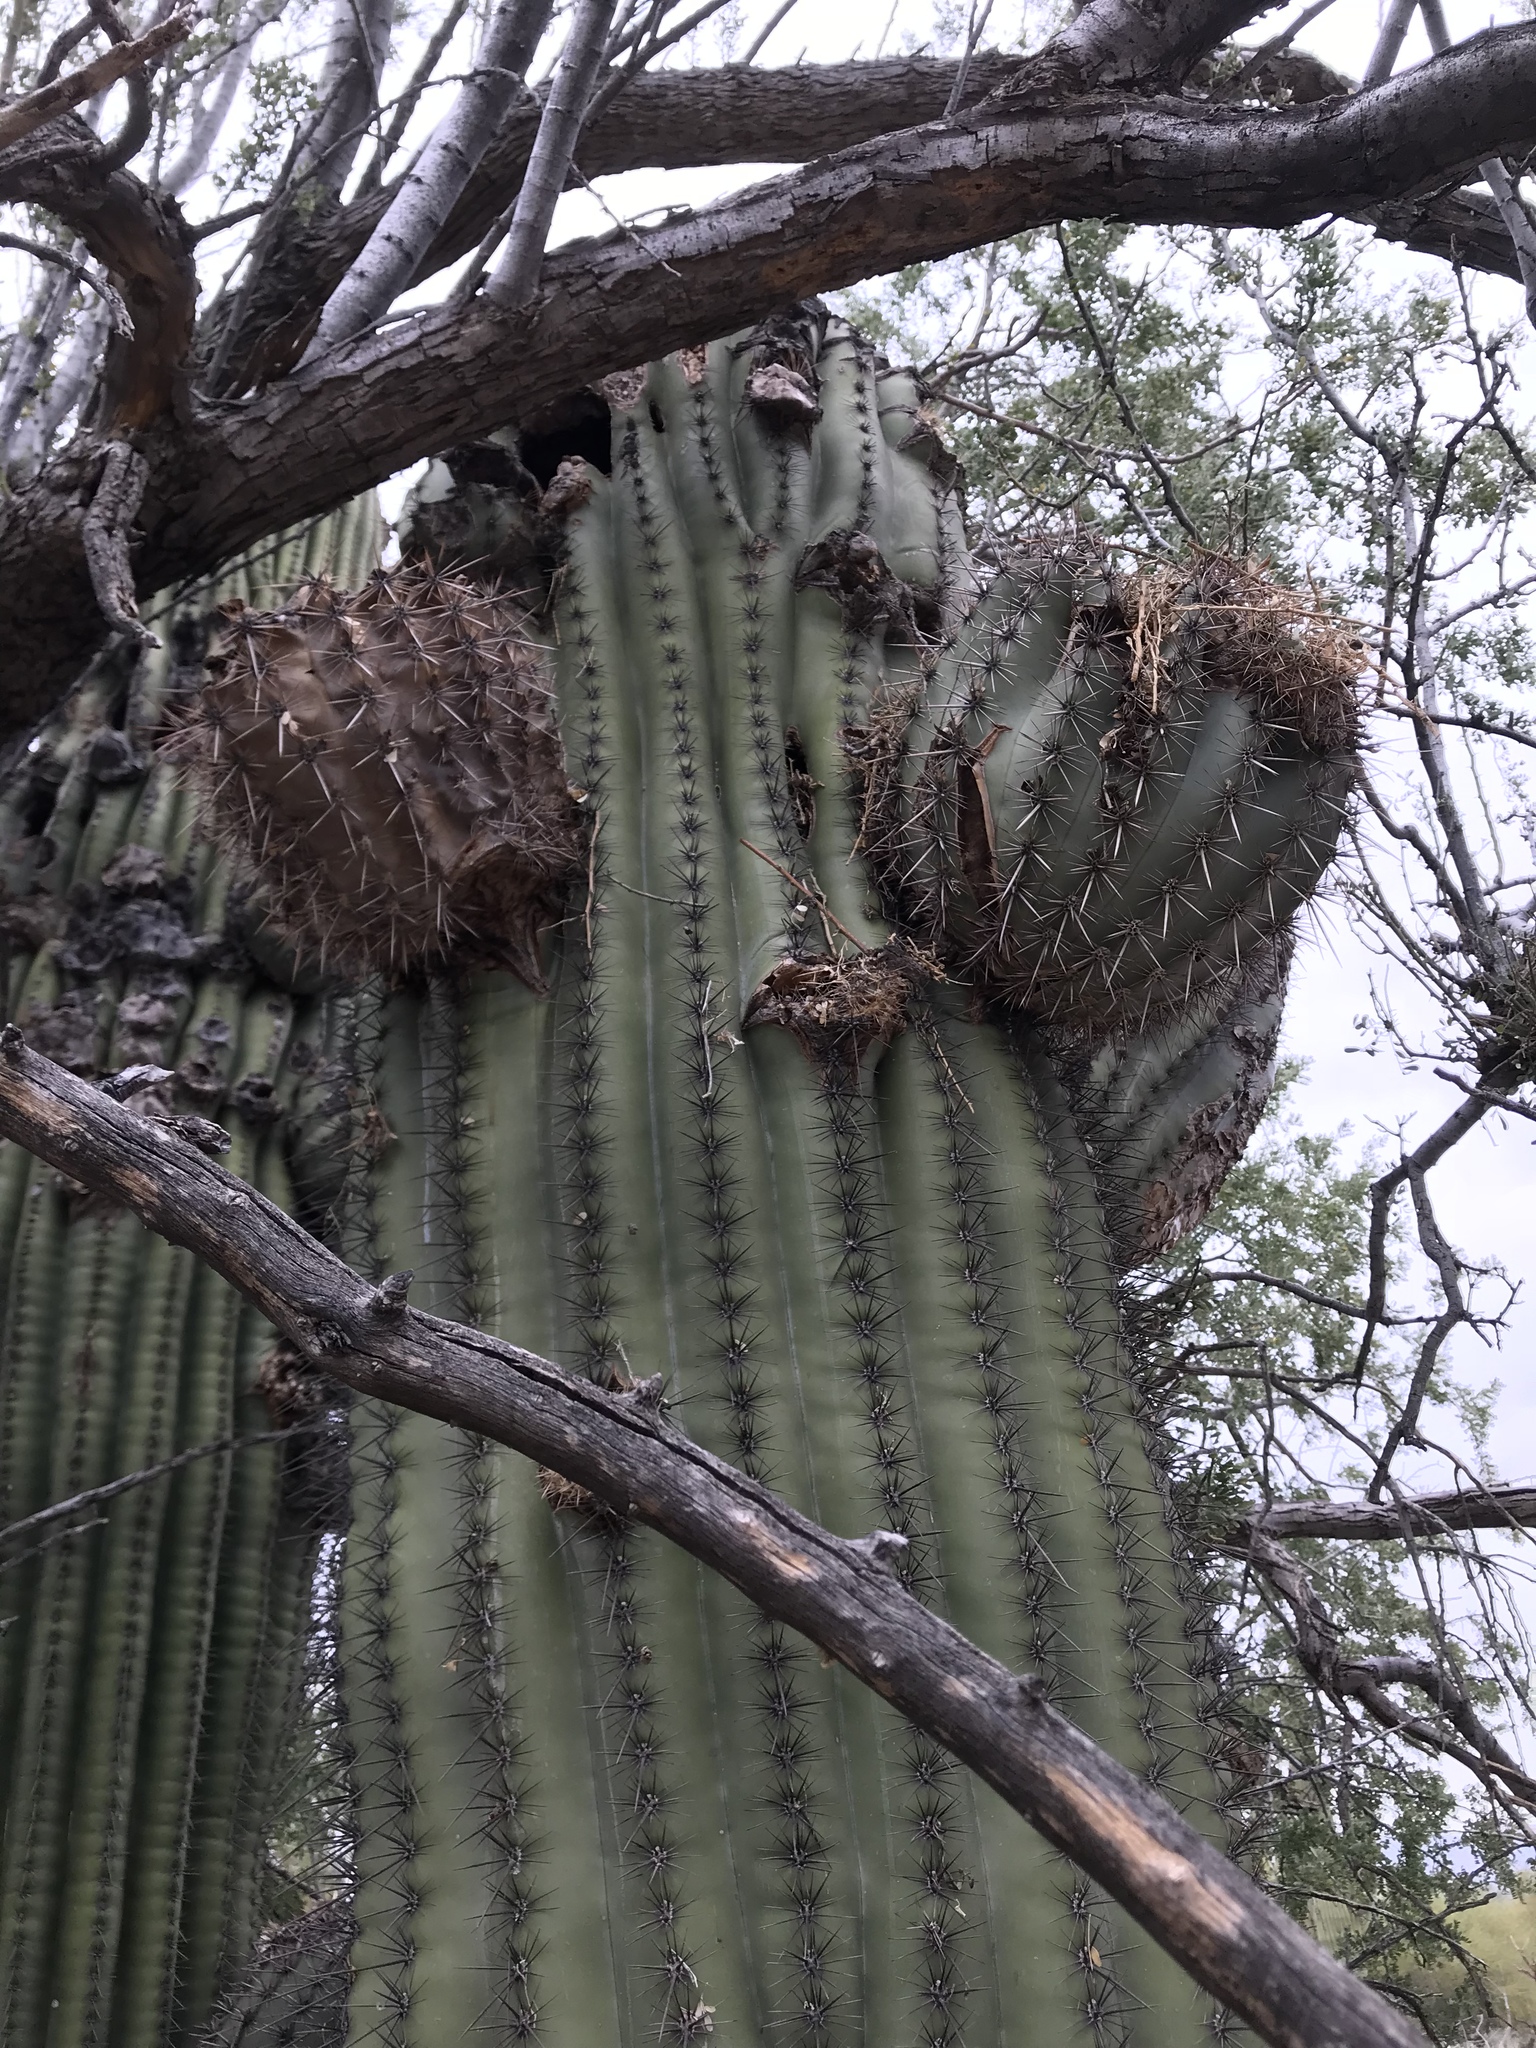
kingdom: Plantae
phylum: Tracheophyta
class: Magnoliopsida
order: Caryophyllales
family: Cactaceae
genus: Carnegiea
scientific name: Carnegiea gigantea
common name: Saguaro
